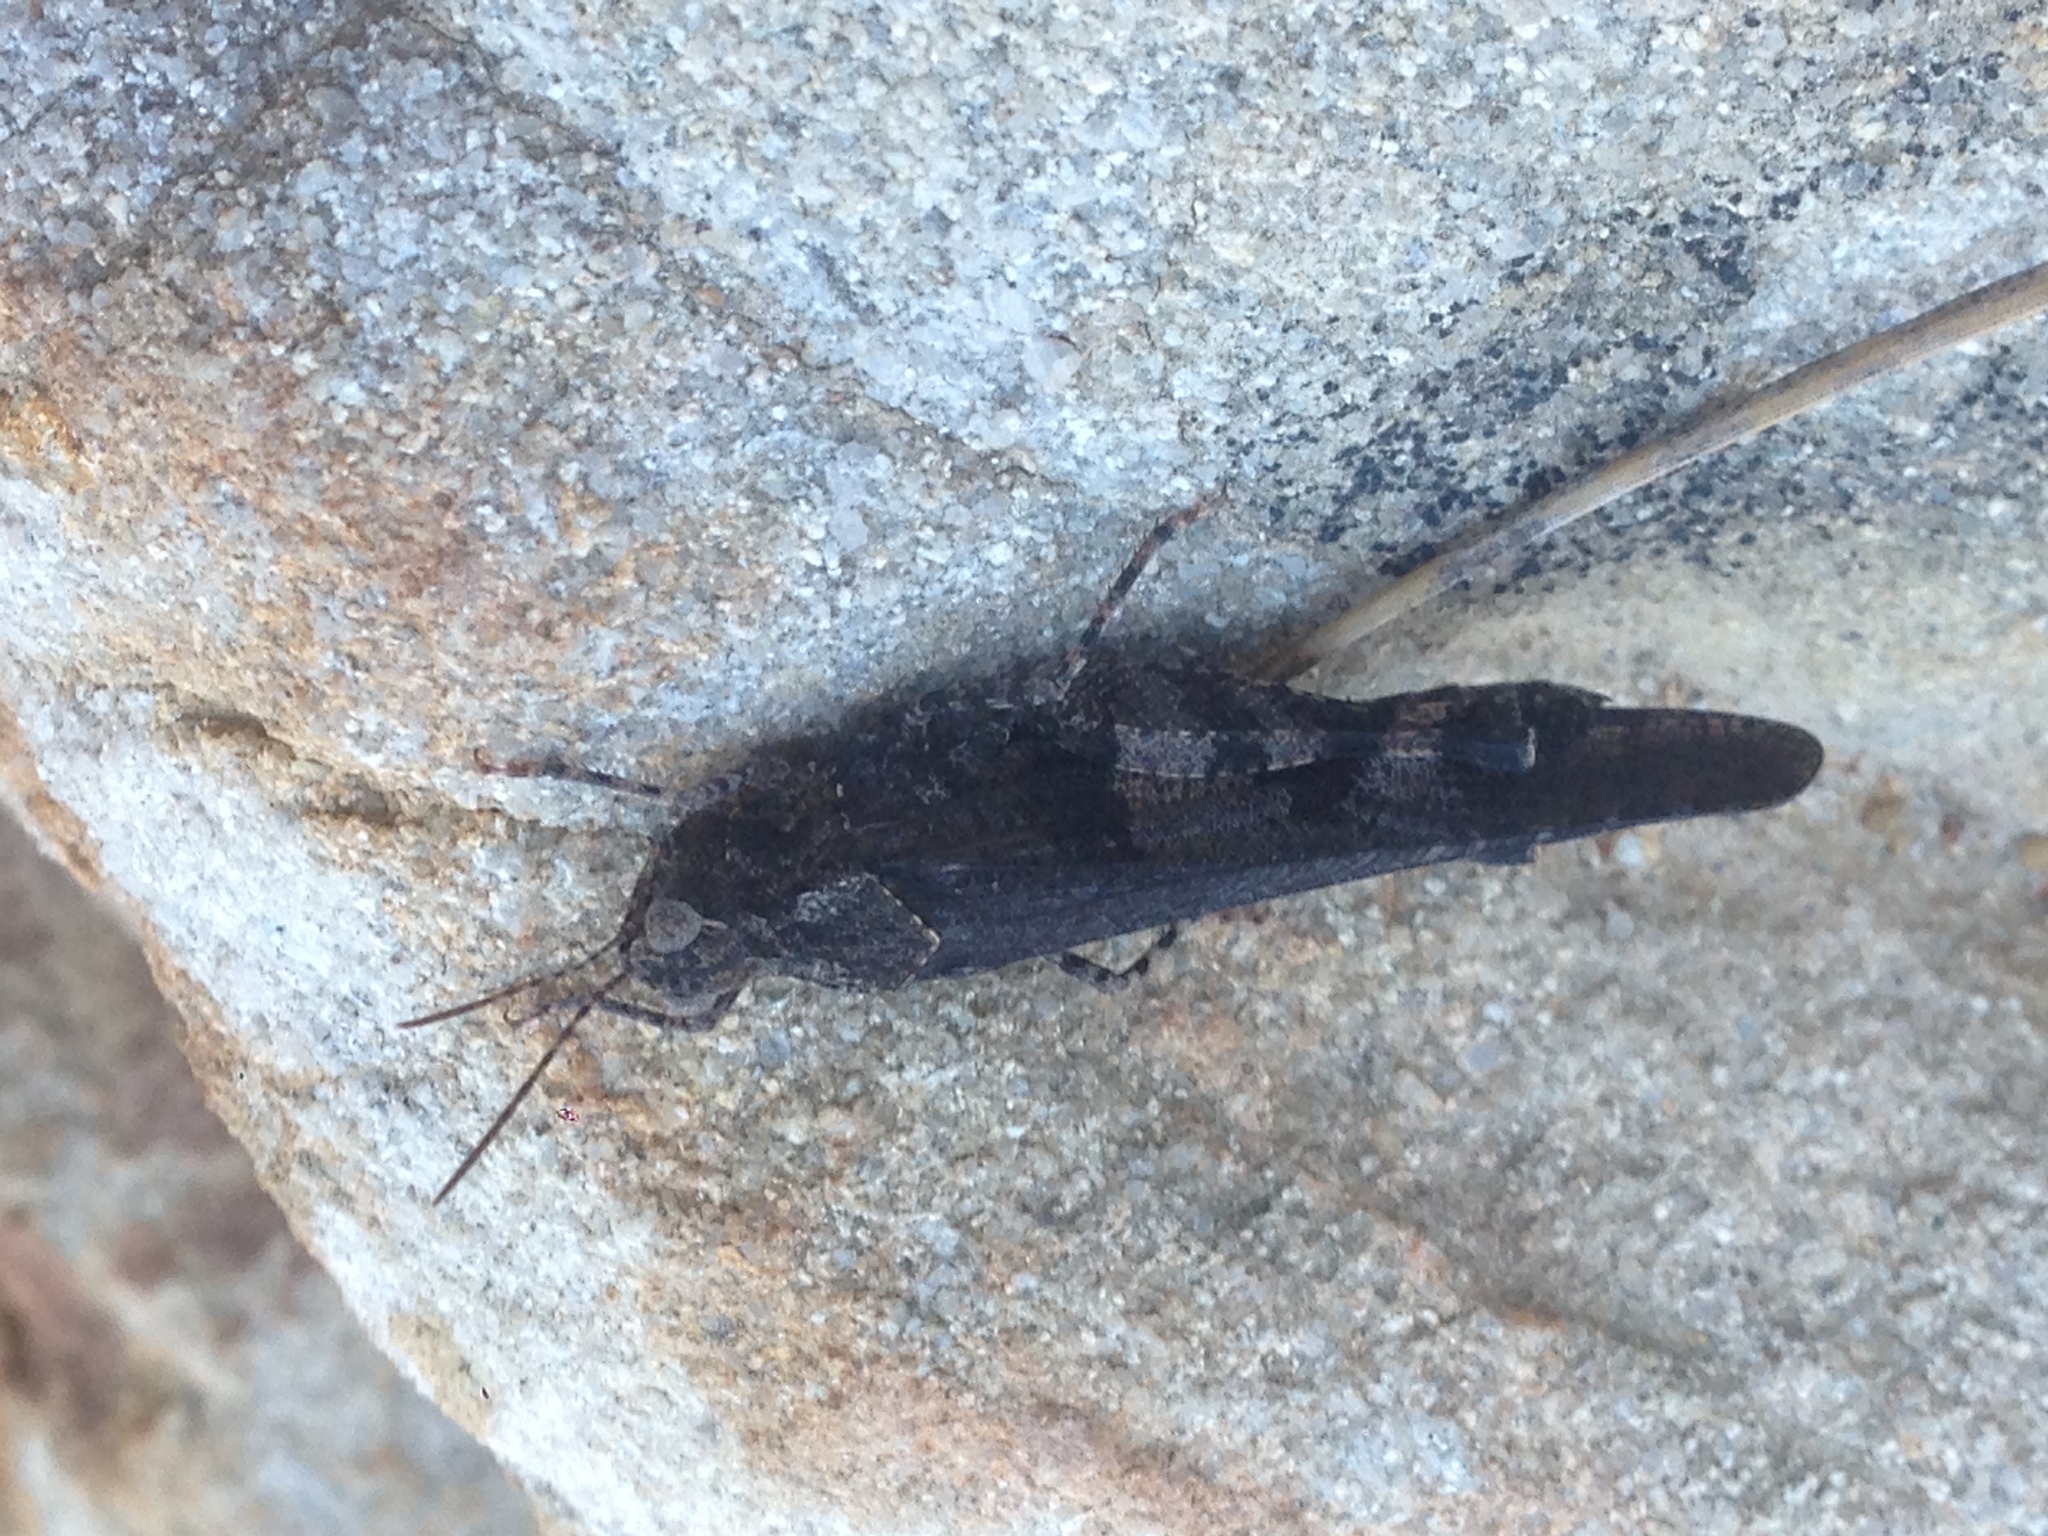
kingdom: Animalia
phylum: Arthropoda
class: Insecta
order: Orthoptera
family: Acrididae
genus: Trimerotropis
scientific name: Trimerotropis fontana
